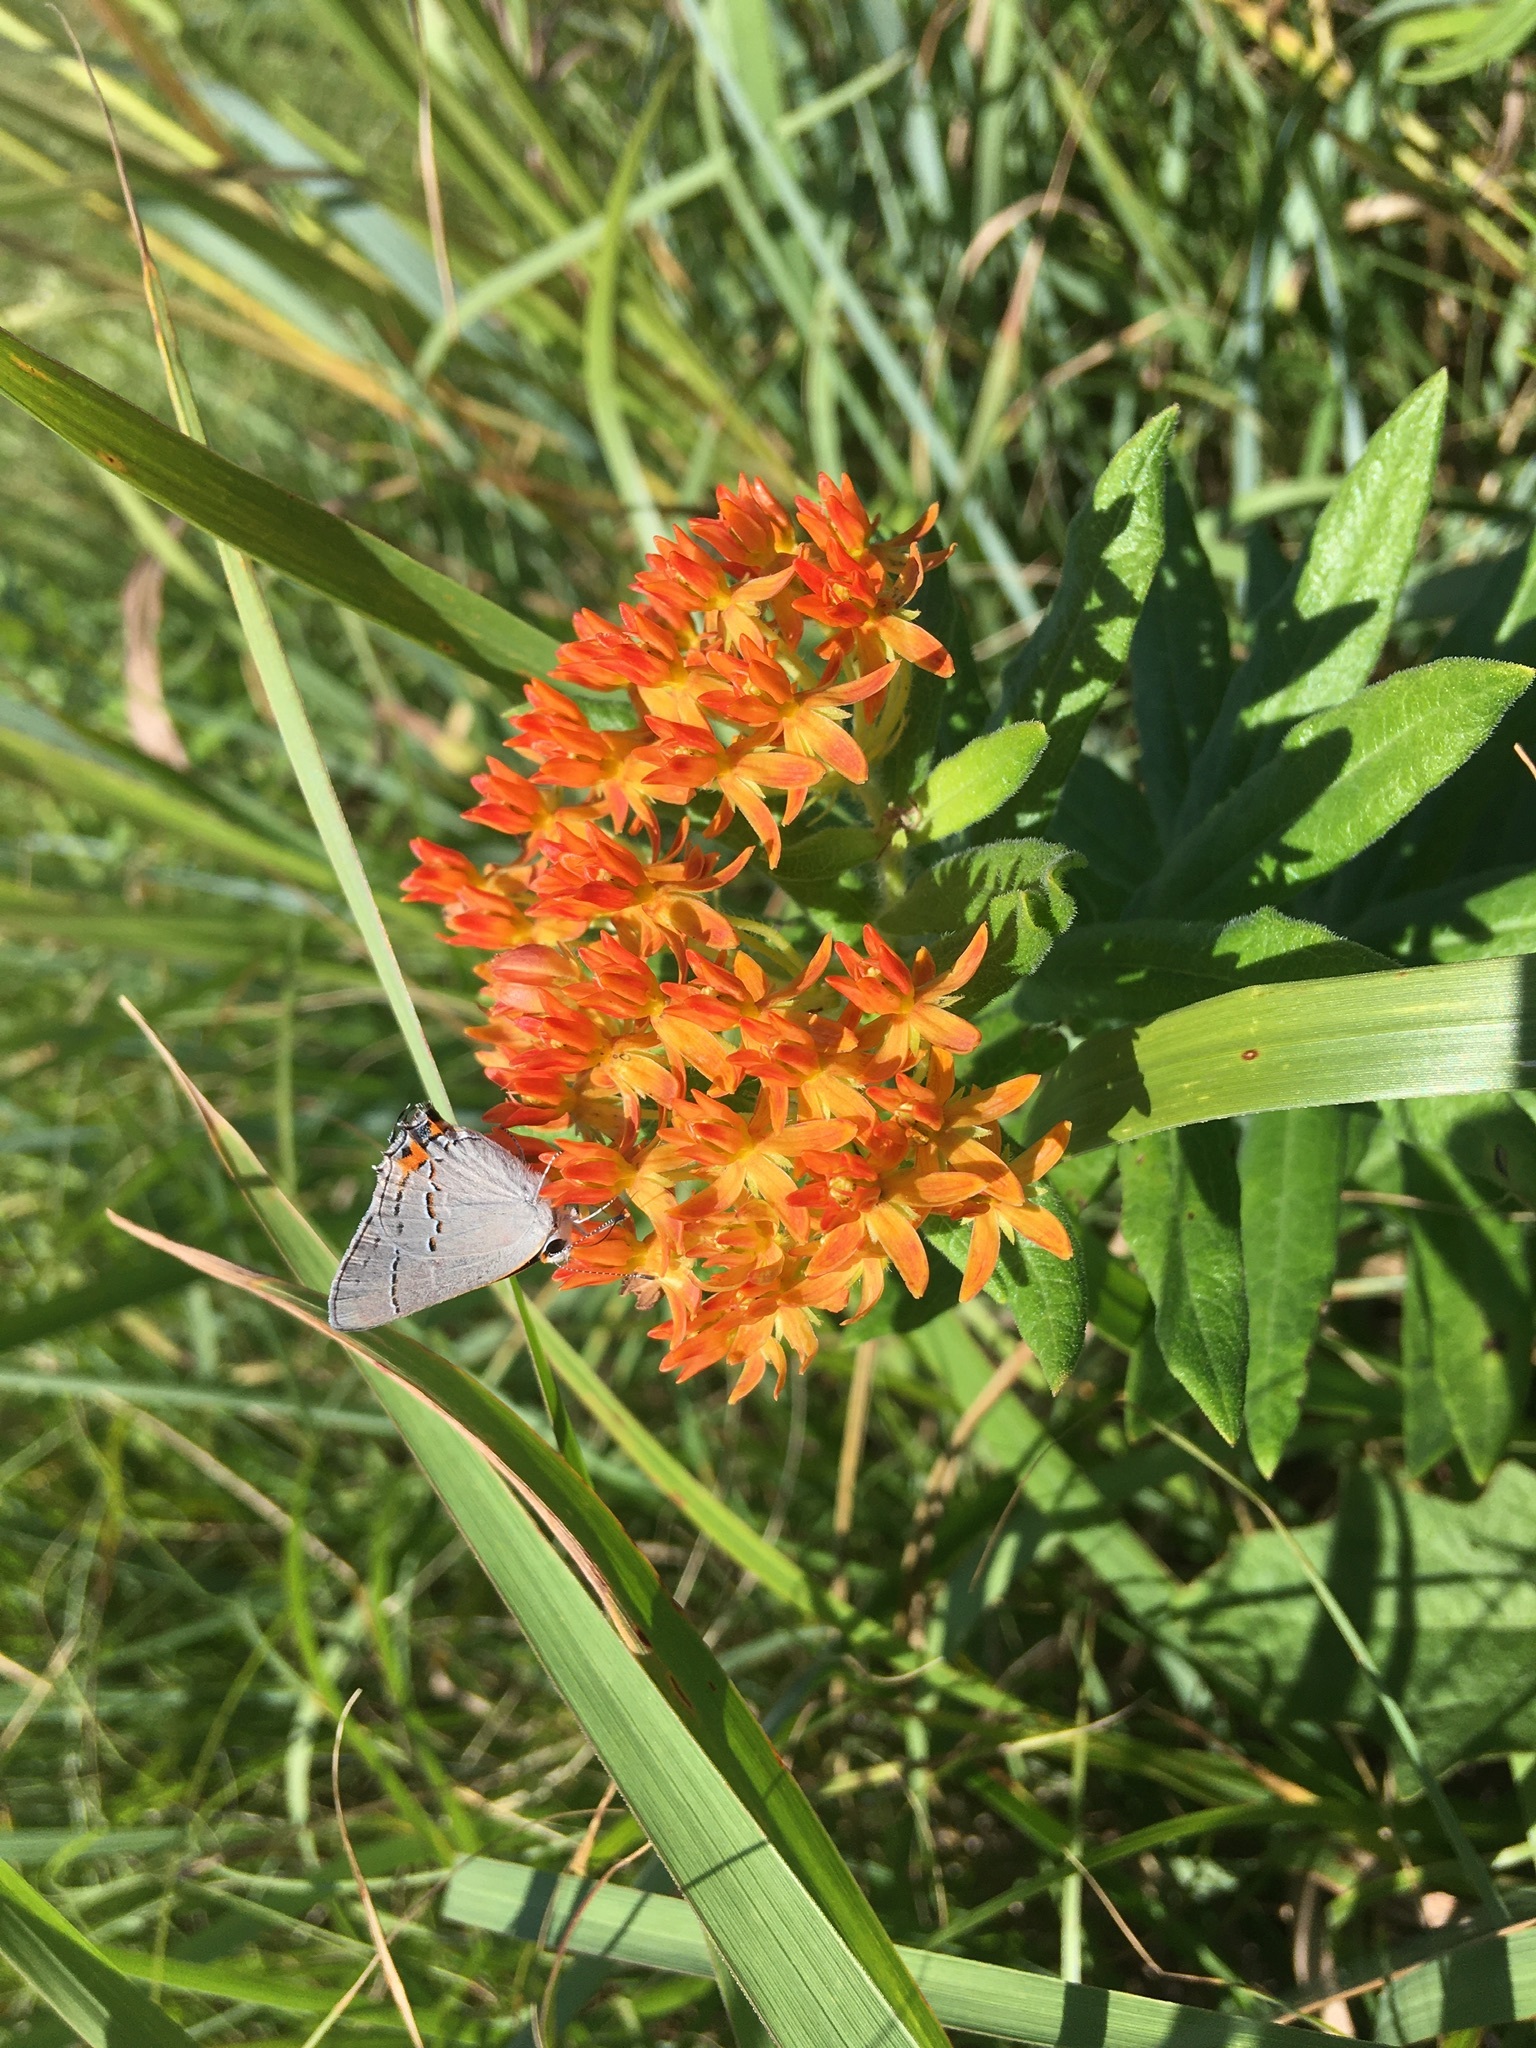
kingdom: Animalia
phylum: Arthropoda
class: Insecta
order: Lepidoptera
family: Lycaenidae
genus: Strymon
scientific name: Strymon melinus
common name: Gray hairstreak
